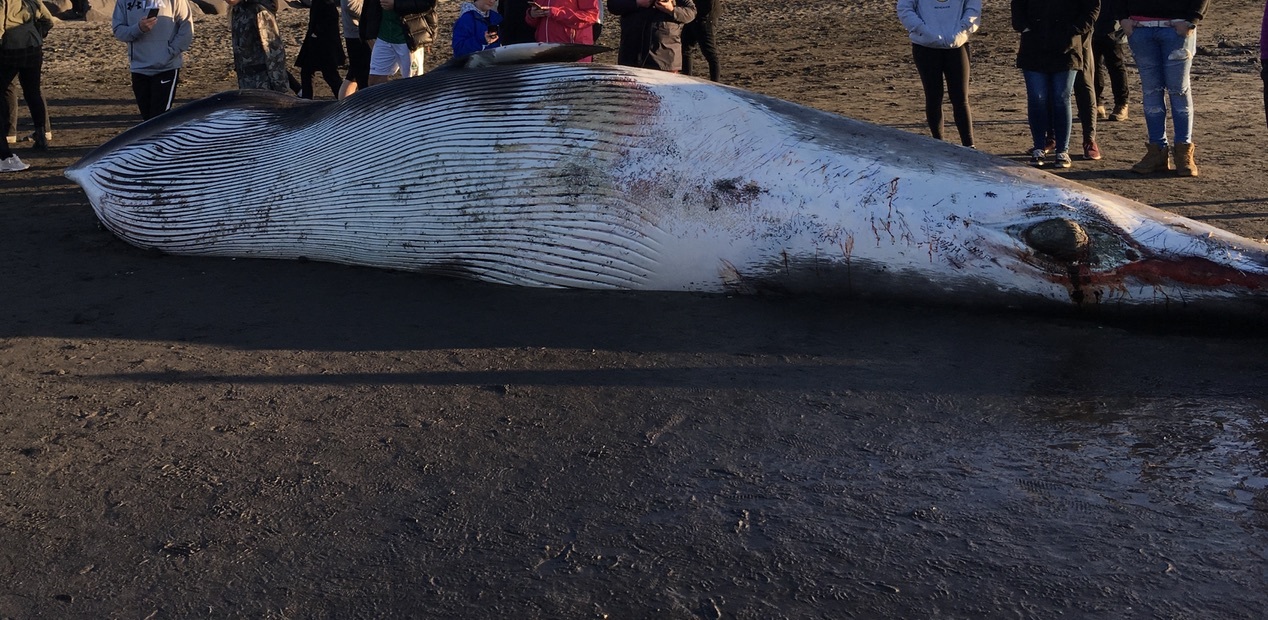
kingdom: Animalia
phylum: Chordata
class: Mammalia
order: Cetacea
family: Balaenopteridae
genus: Balaenoptera
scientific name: Balaenoptera acutorostrata
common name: Common minke whale
